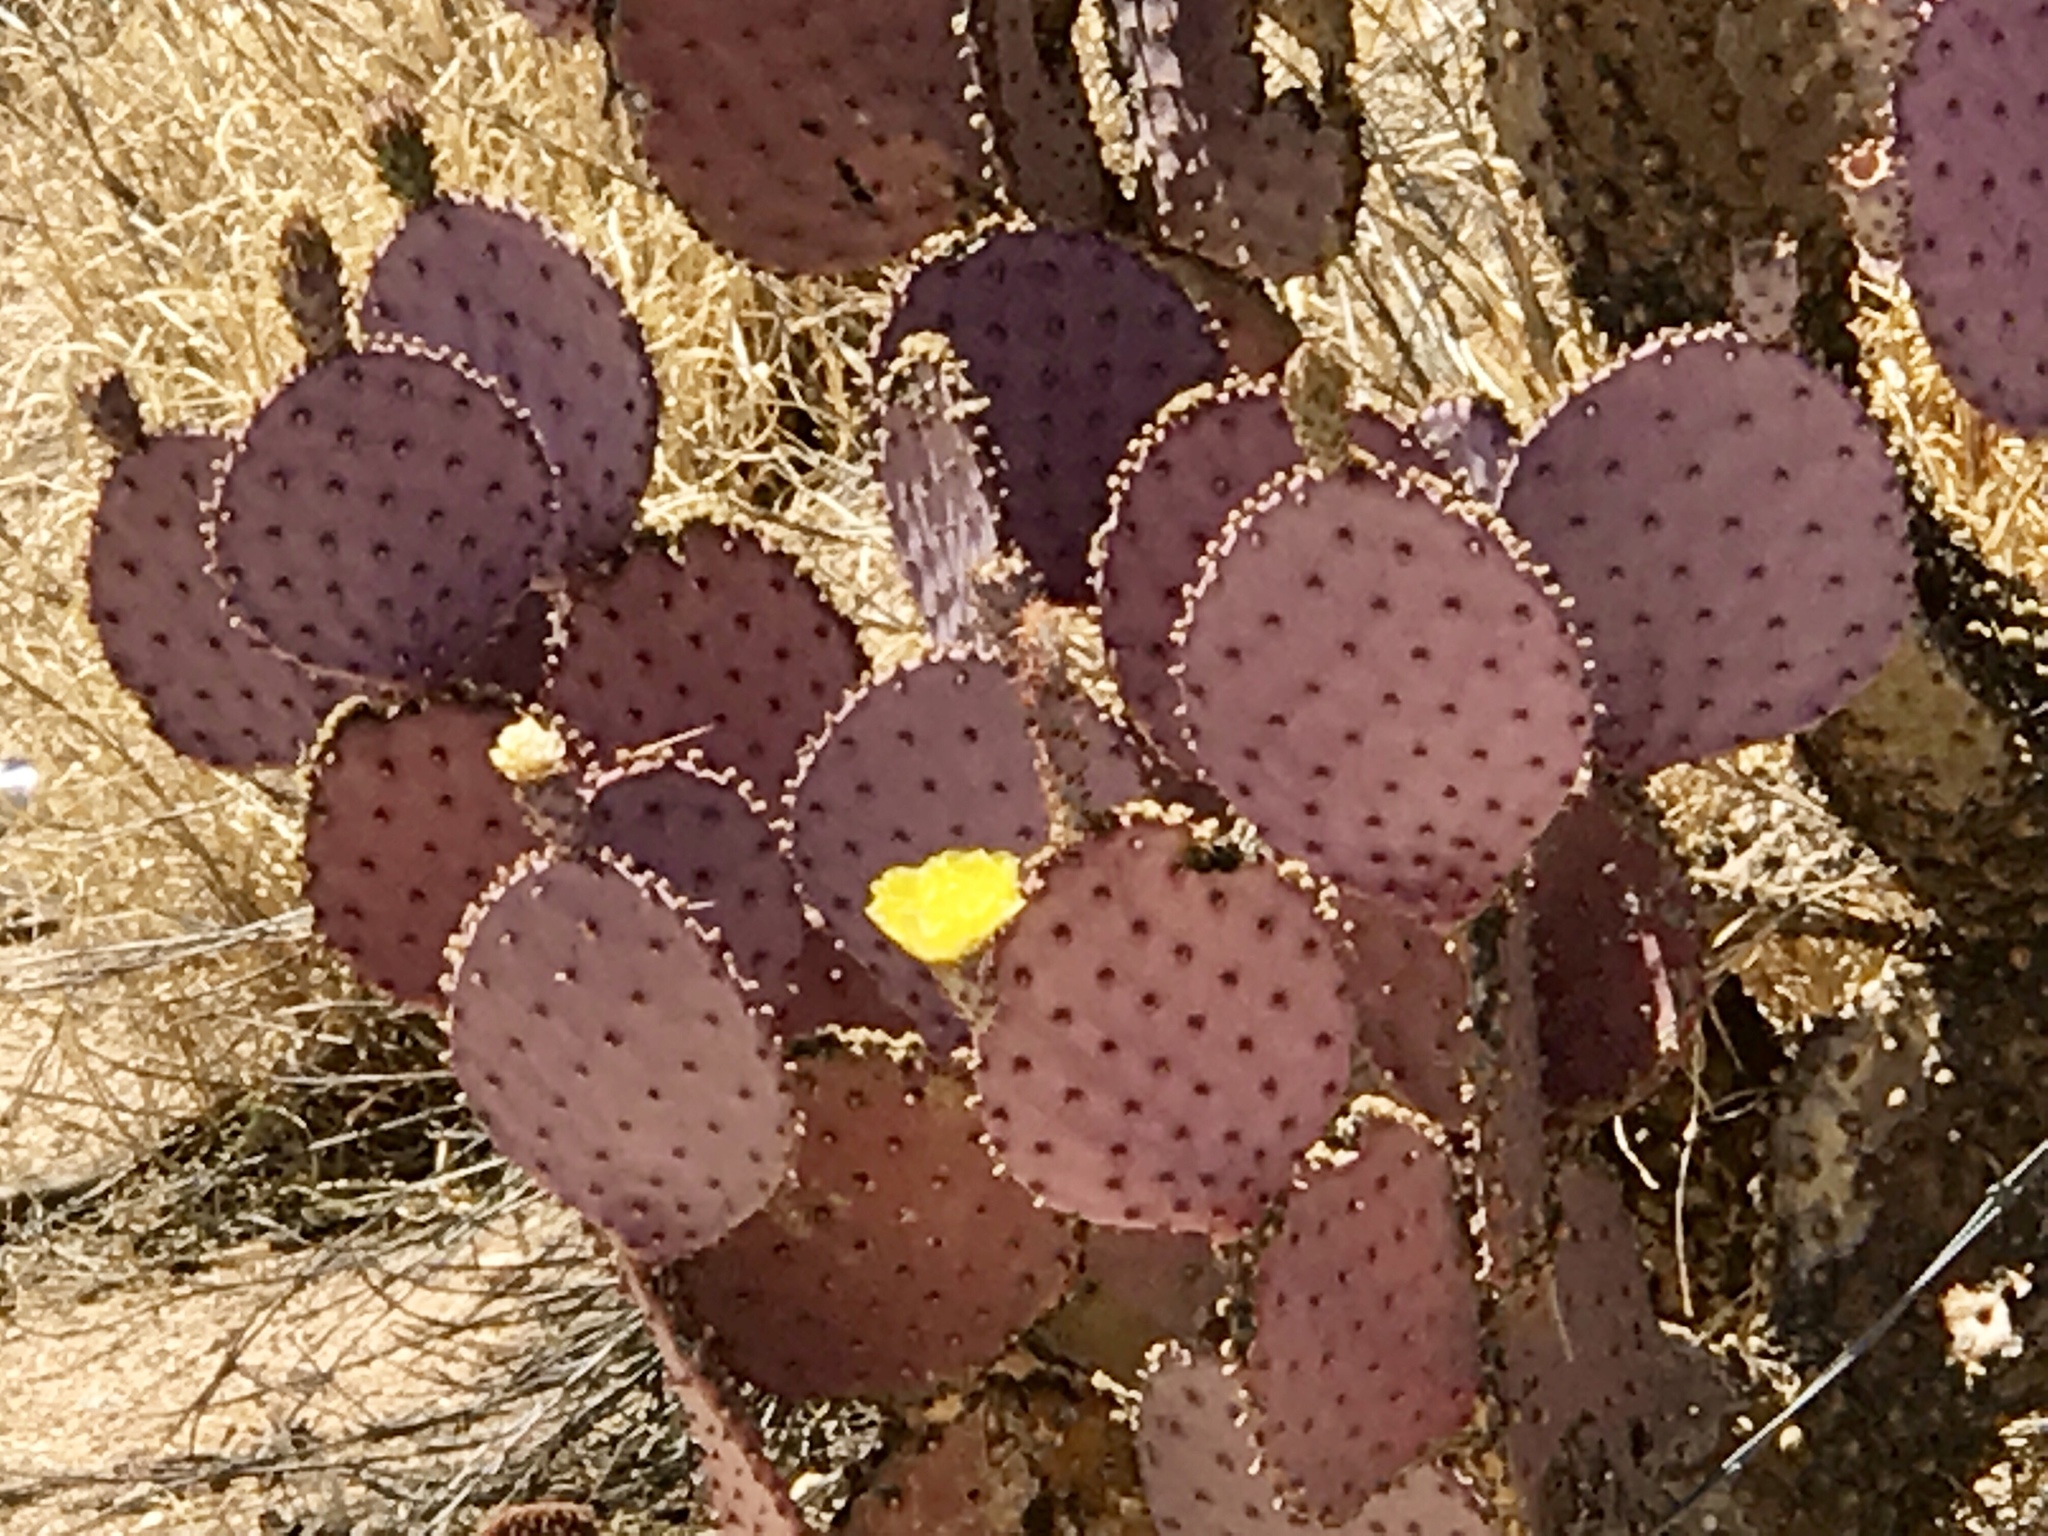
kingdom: Plantae
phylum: Tracheophyta
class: Magnoliopsida
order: Caryophyllales
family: Cactaceae
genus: Opuntia
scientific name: Opuntia gosseliniana
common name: Violet prickly-pear
